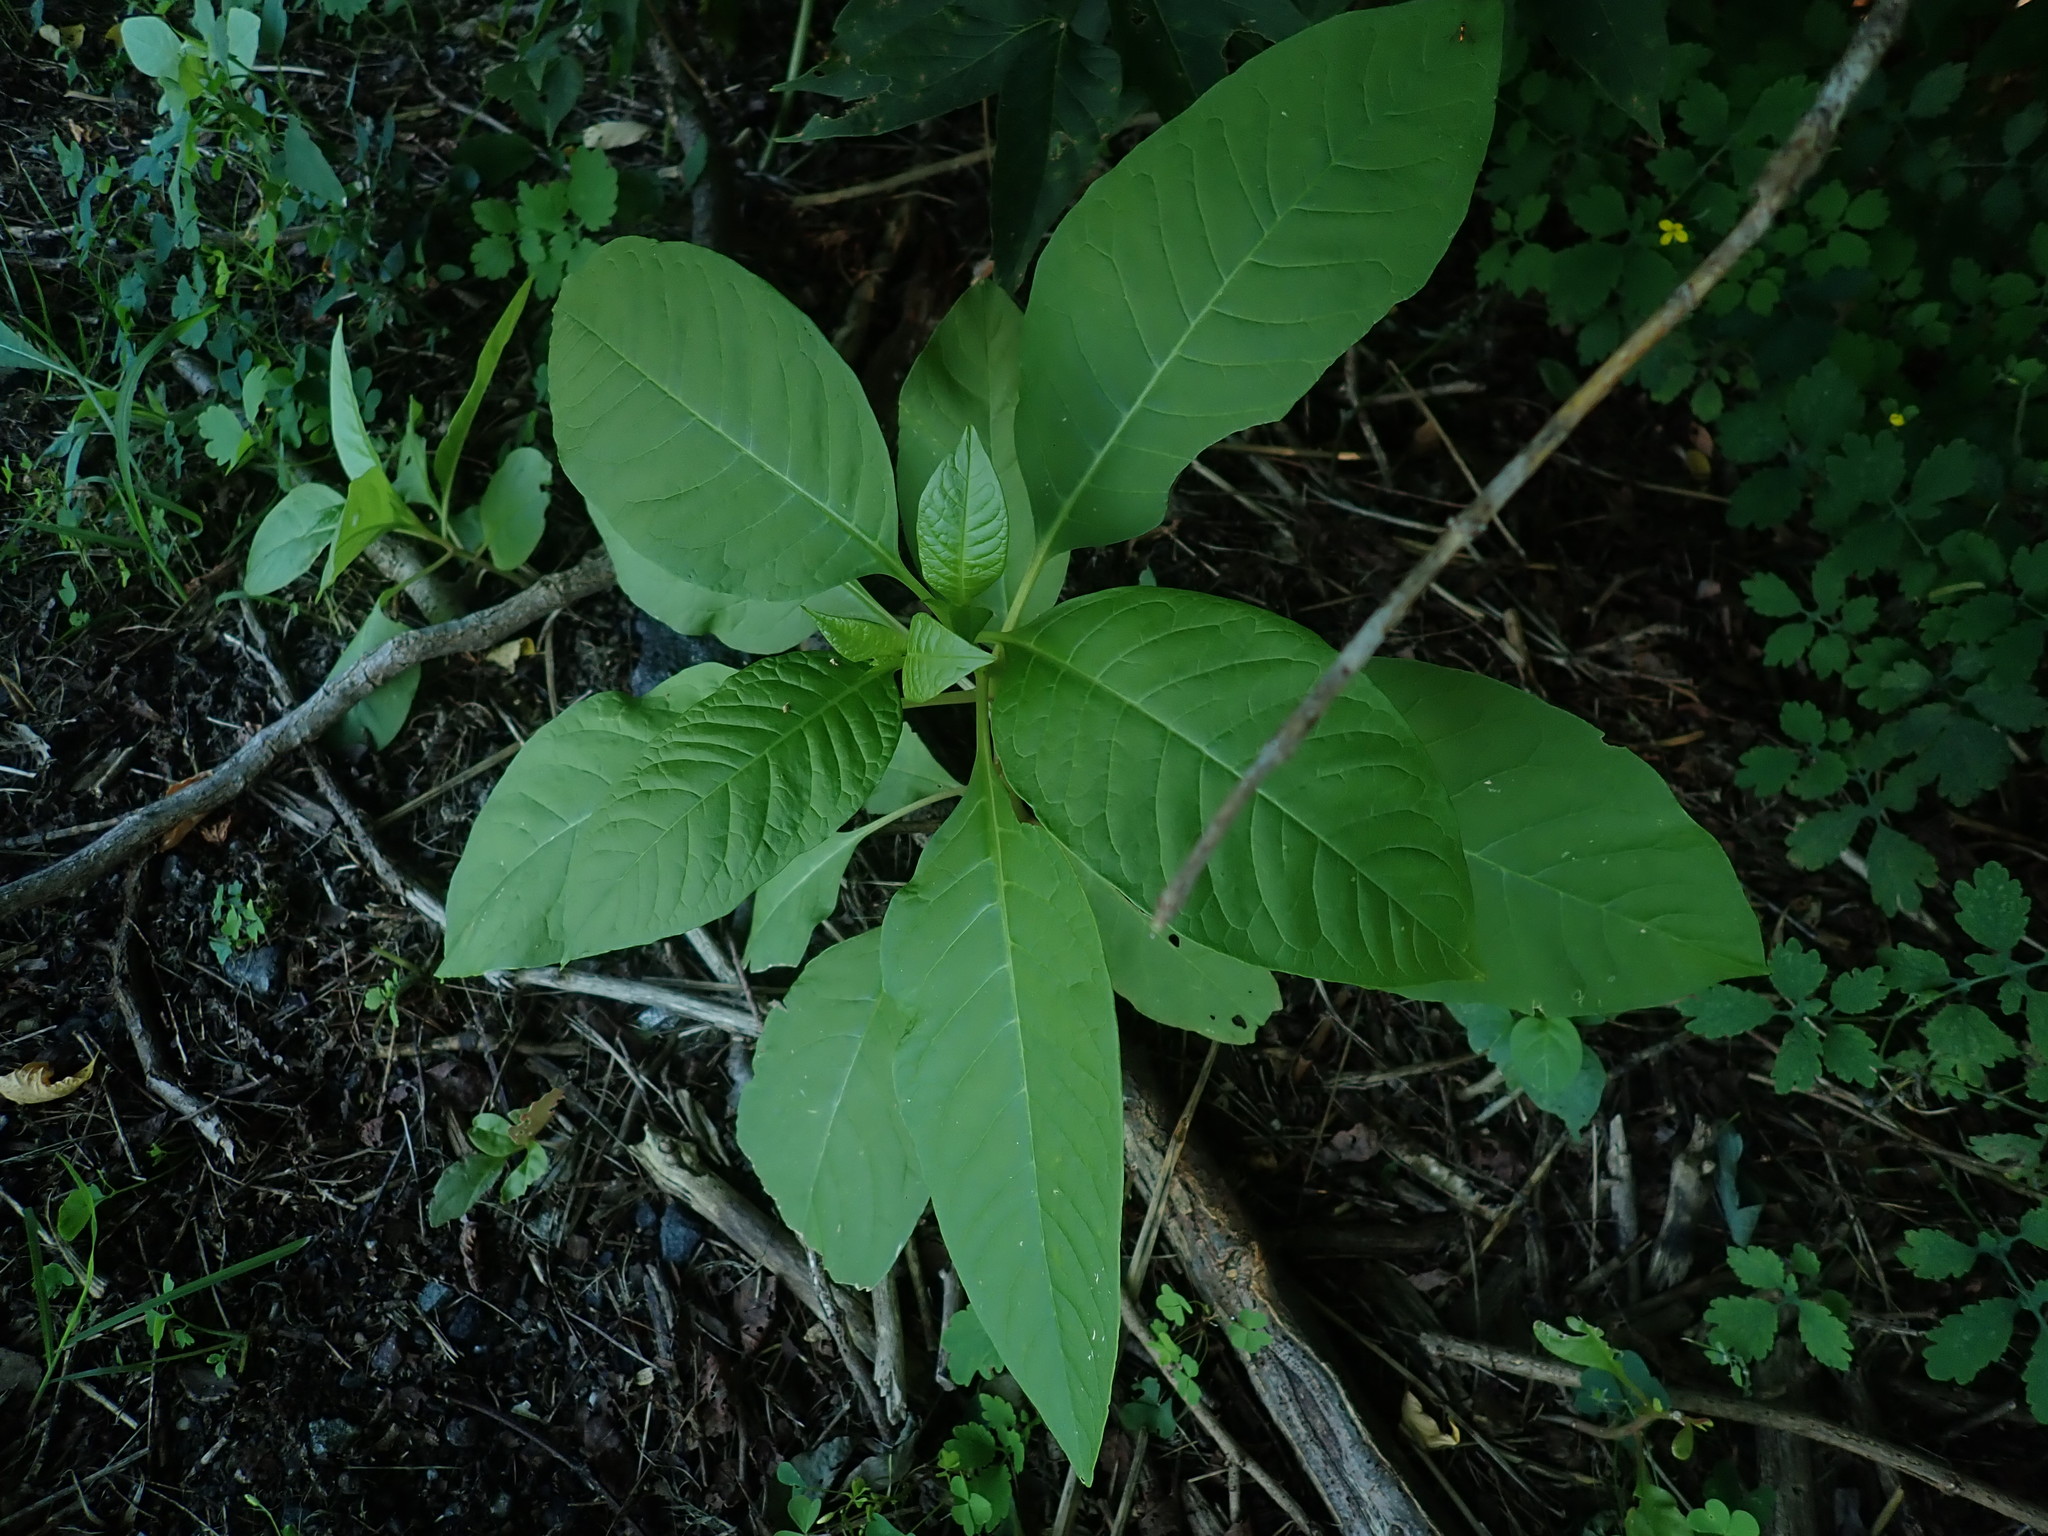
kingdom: Plantae
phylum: Tracheophyta
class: Magnoliopsida
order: Caryophyllales
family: Phytolaccaceae
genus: Phytolacca
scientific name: Phytolacca americana
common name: American pokeweed
